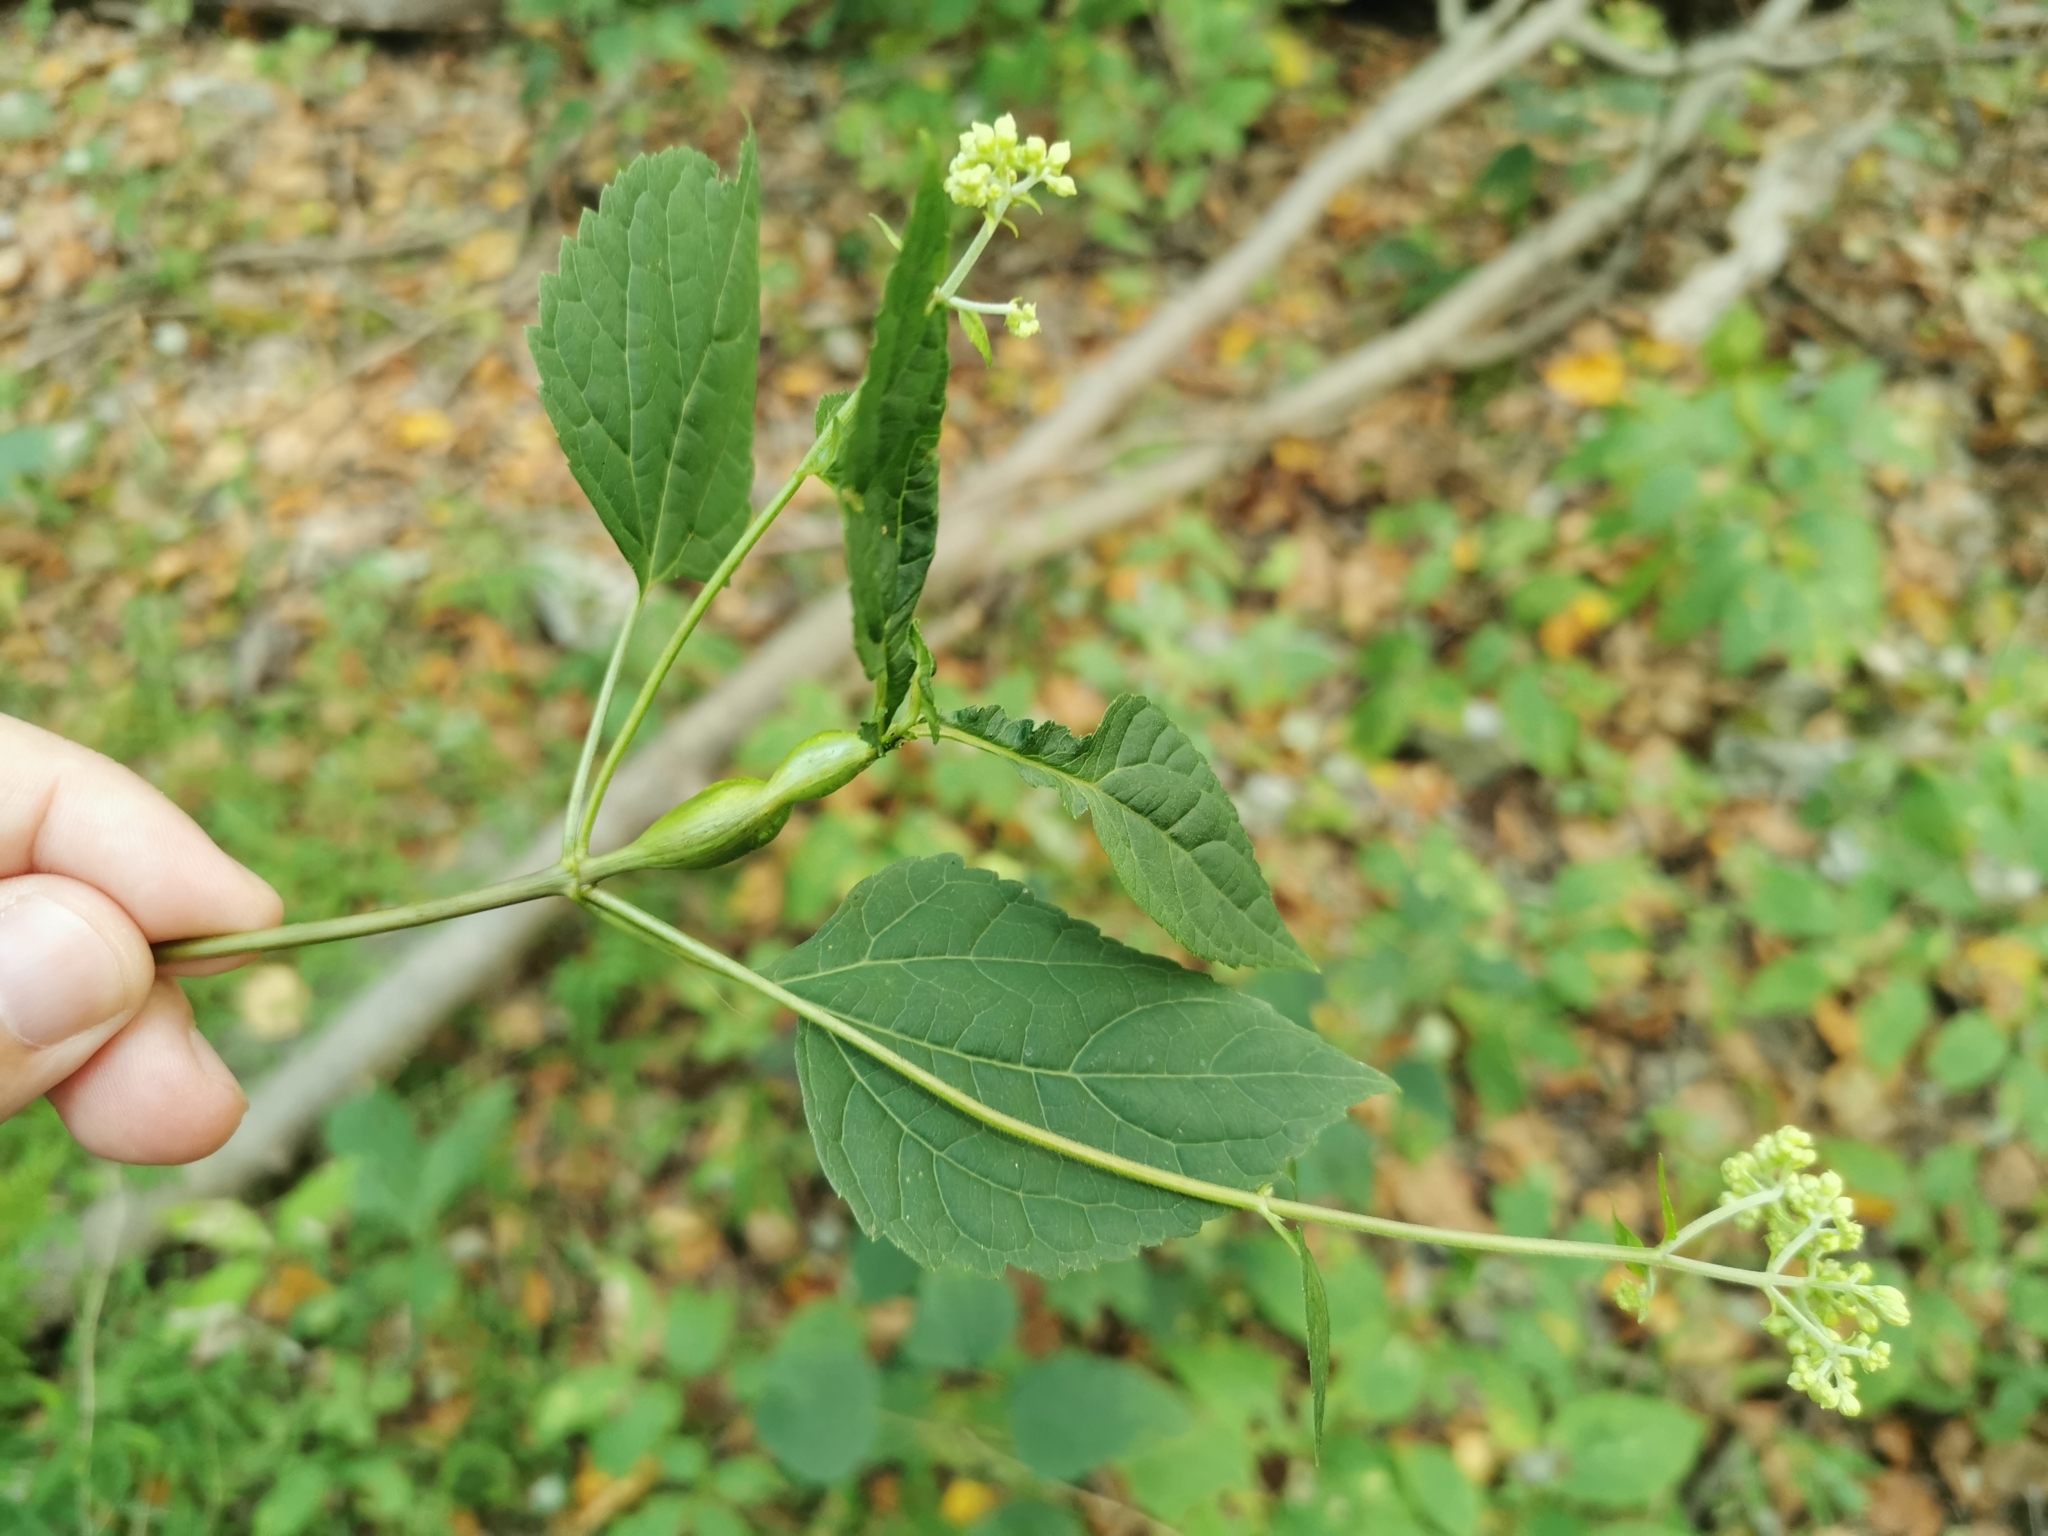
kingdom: Animalia
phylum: Arthropoda
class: Insecta
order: Diptera
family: Cecidomyiidae
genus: Asphondylia
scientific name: Asphondylia eupatorii
